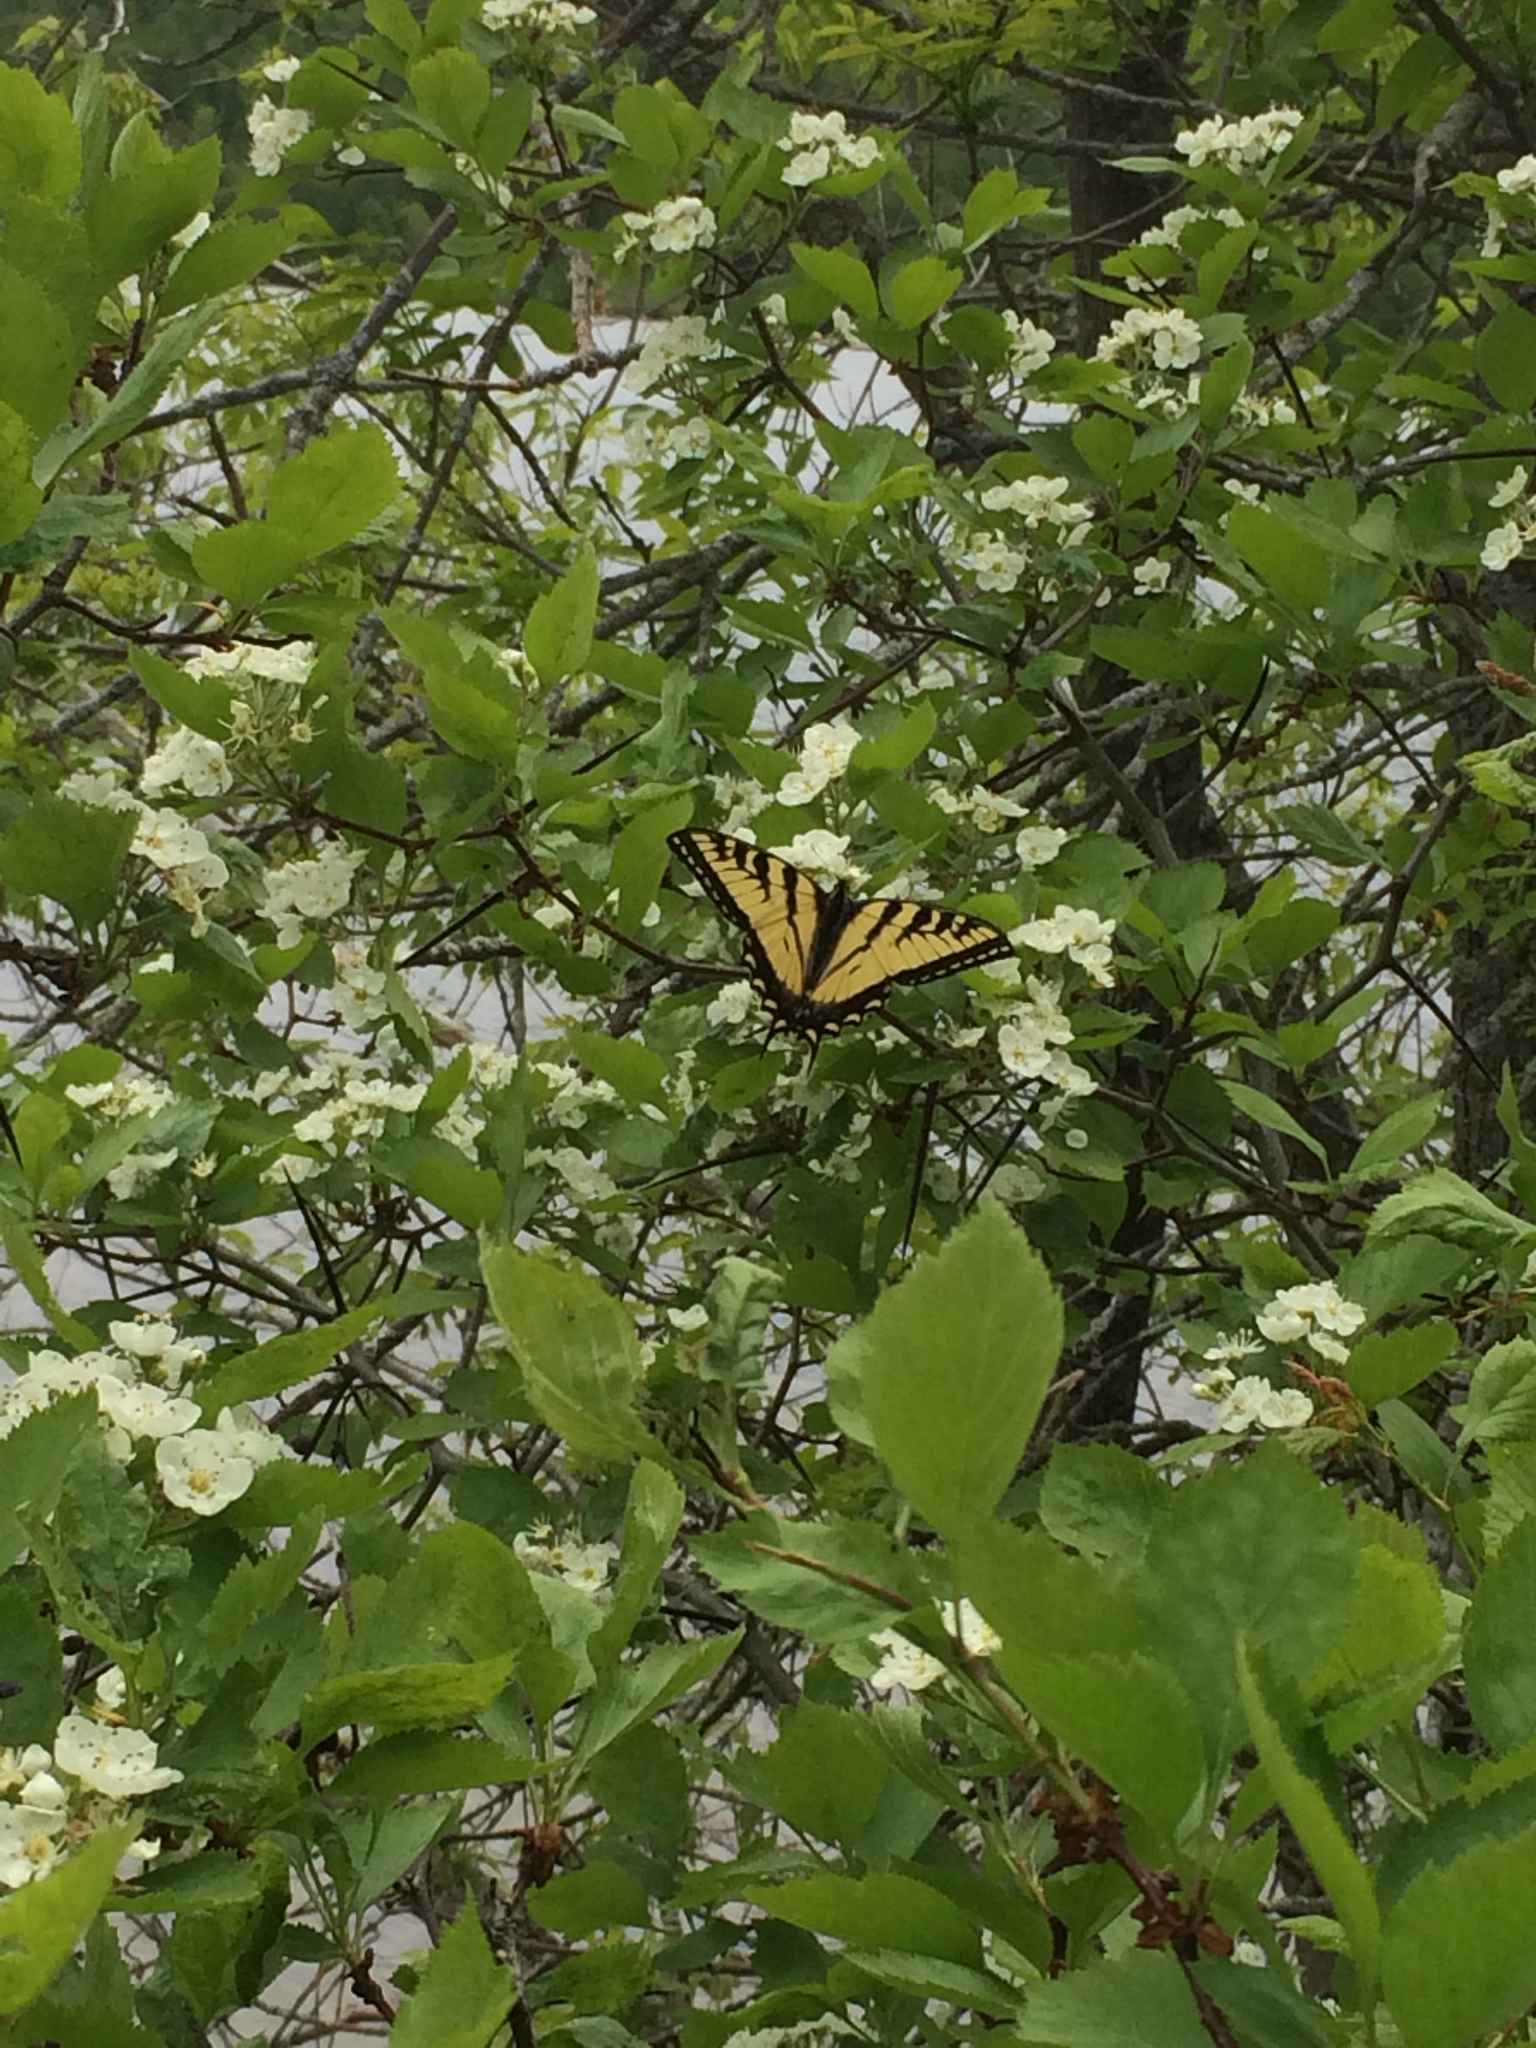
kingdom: Animalia
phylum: Arthropoda
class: Insecta
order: Lepidoptera
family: Papilionidae
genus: Papilio
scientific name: Papilio canadensis
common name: Canadian tiger swallowtail
